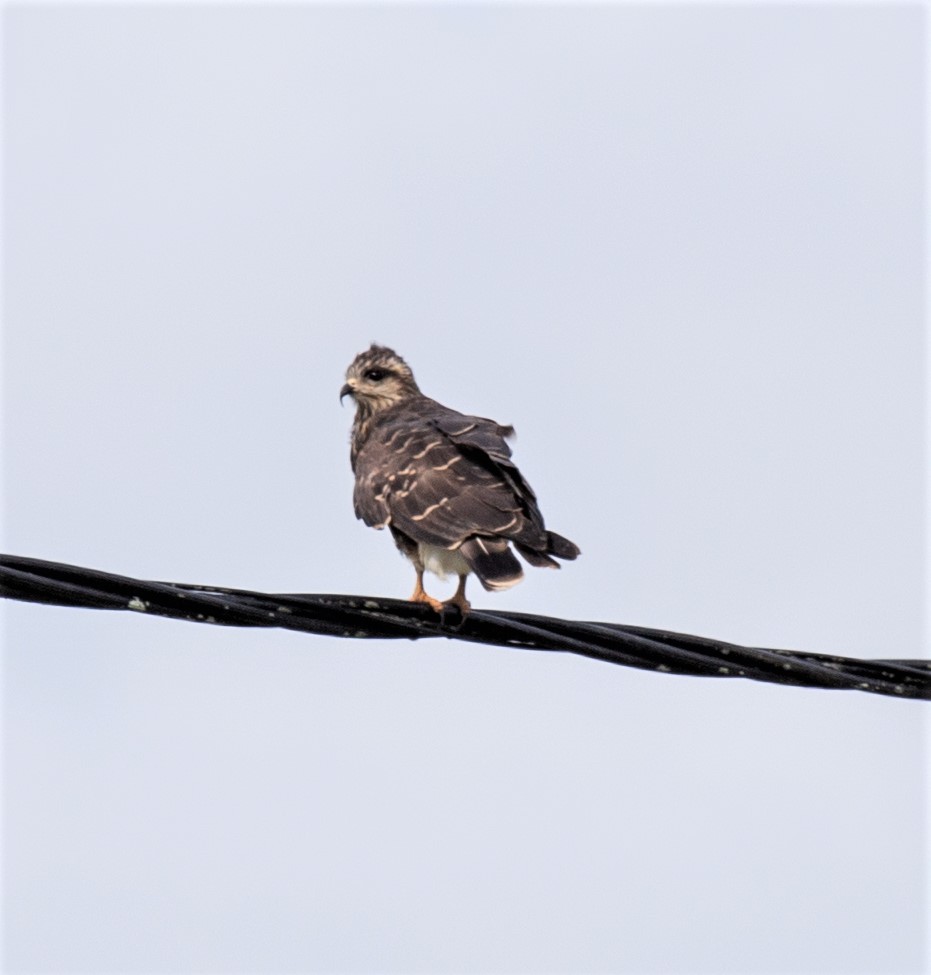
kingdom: Animalia
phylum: Chordata
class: Aves
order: Accipitriformes
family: Accipitridae
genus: Rostrhamus
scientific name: Rostrhamus sociabilis
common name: Snail kite
